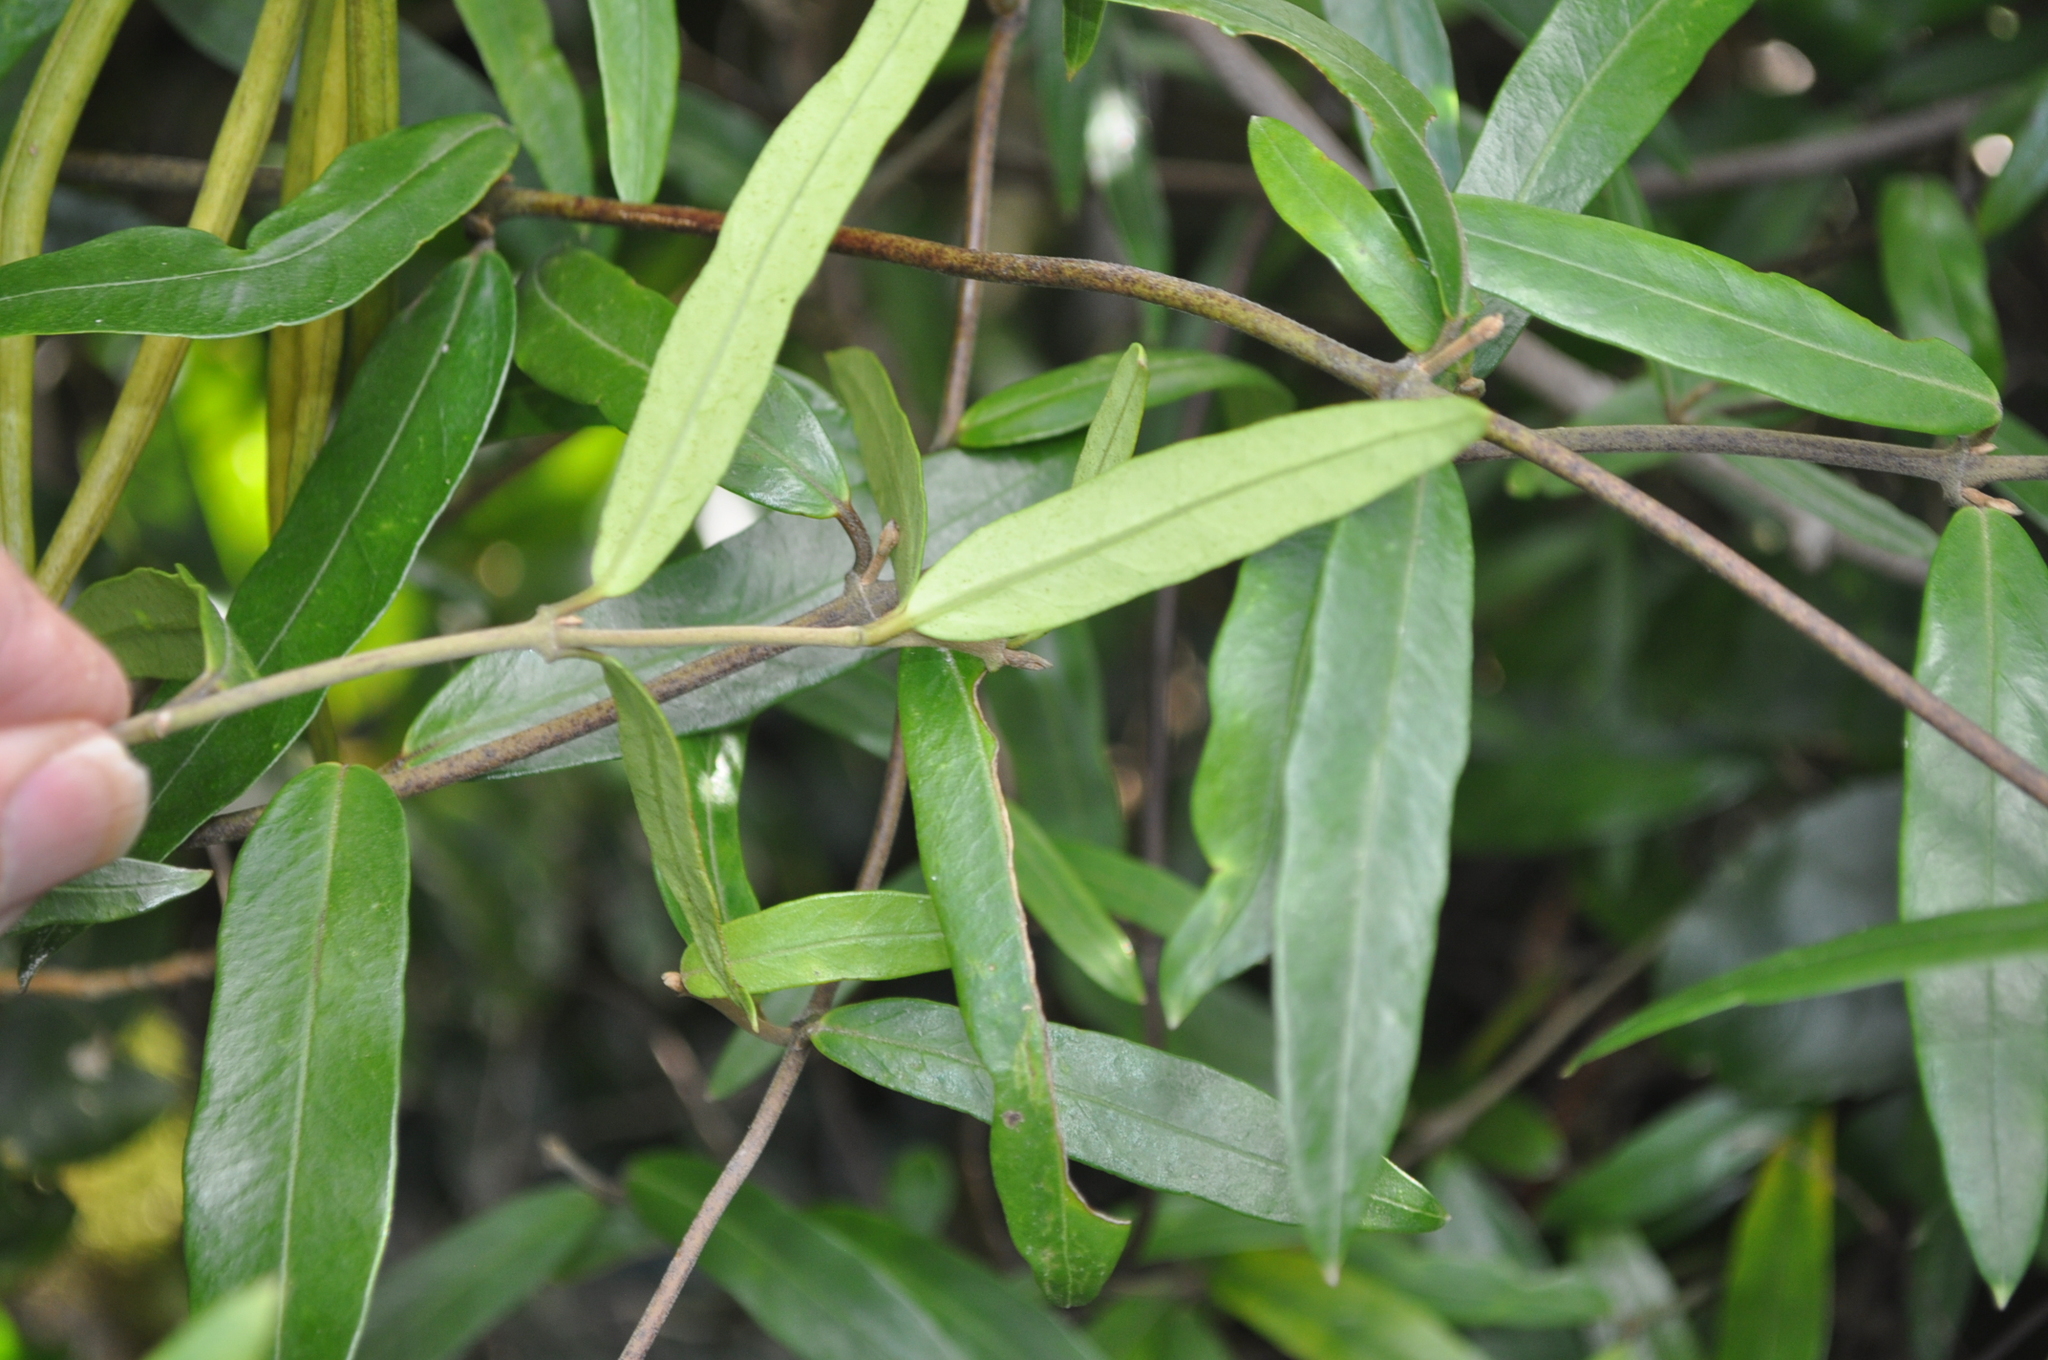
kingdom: Plantae
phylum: Tracheophyta
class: Magnoliopsida
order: Gentianales
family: Apocynaceae
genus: Parsonsia
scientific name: Parsonsia heterophylla
